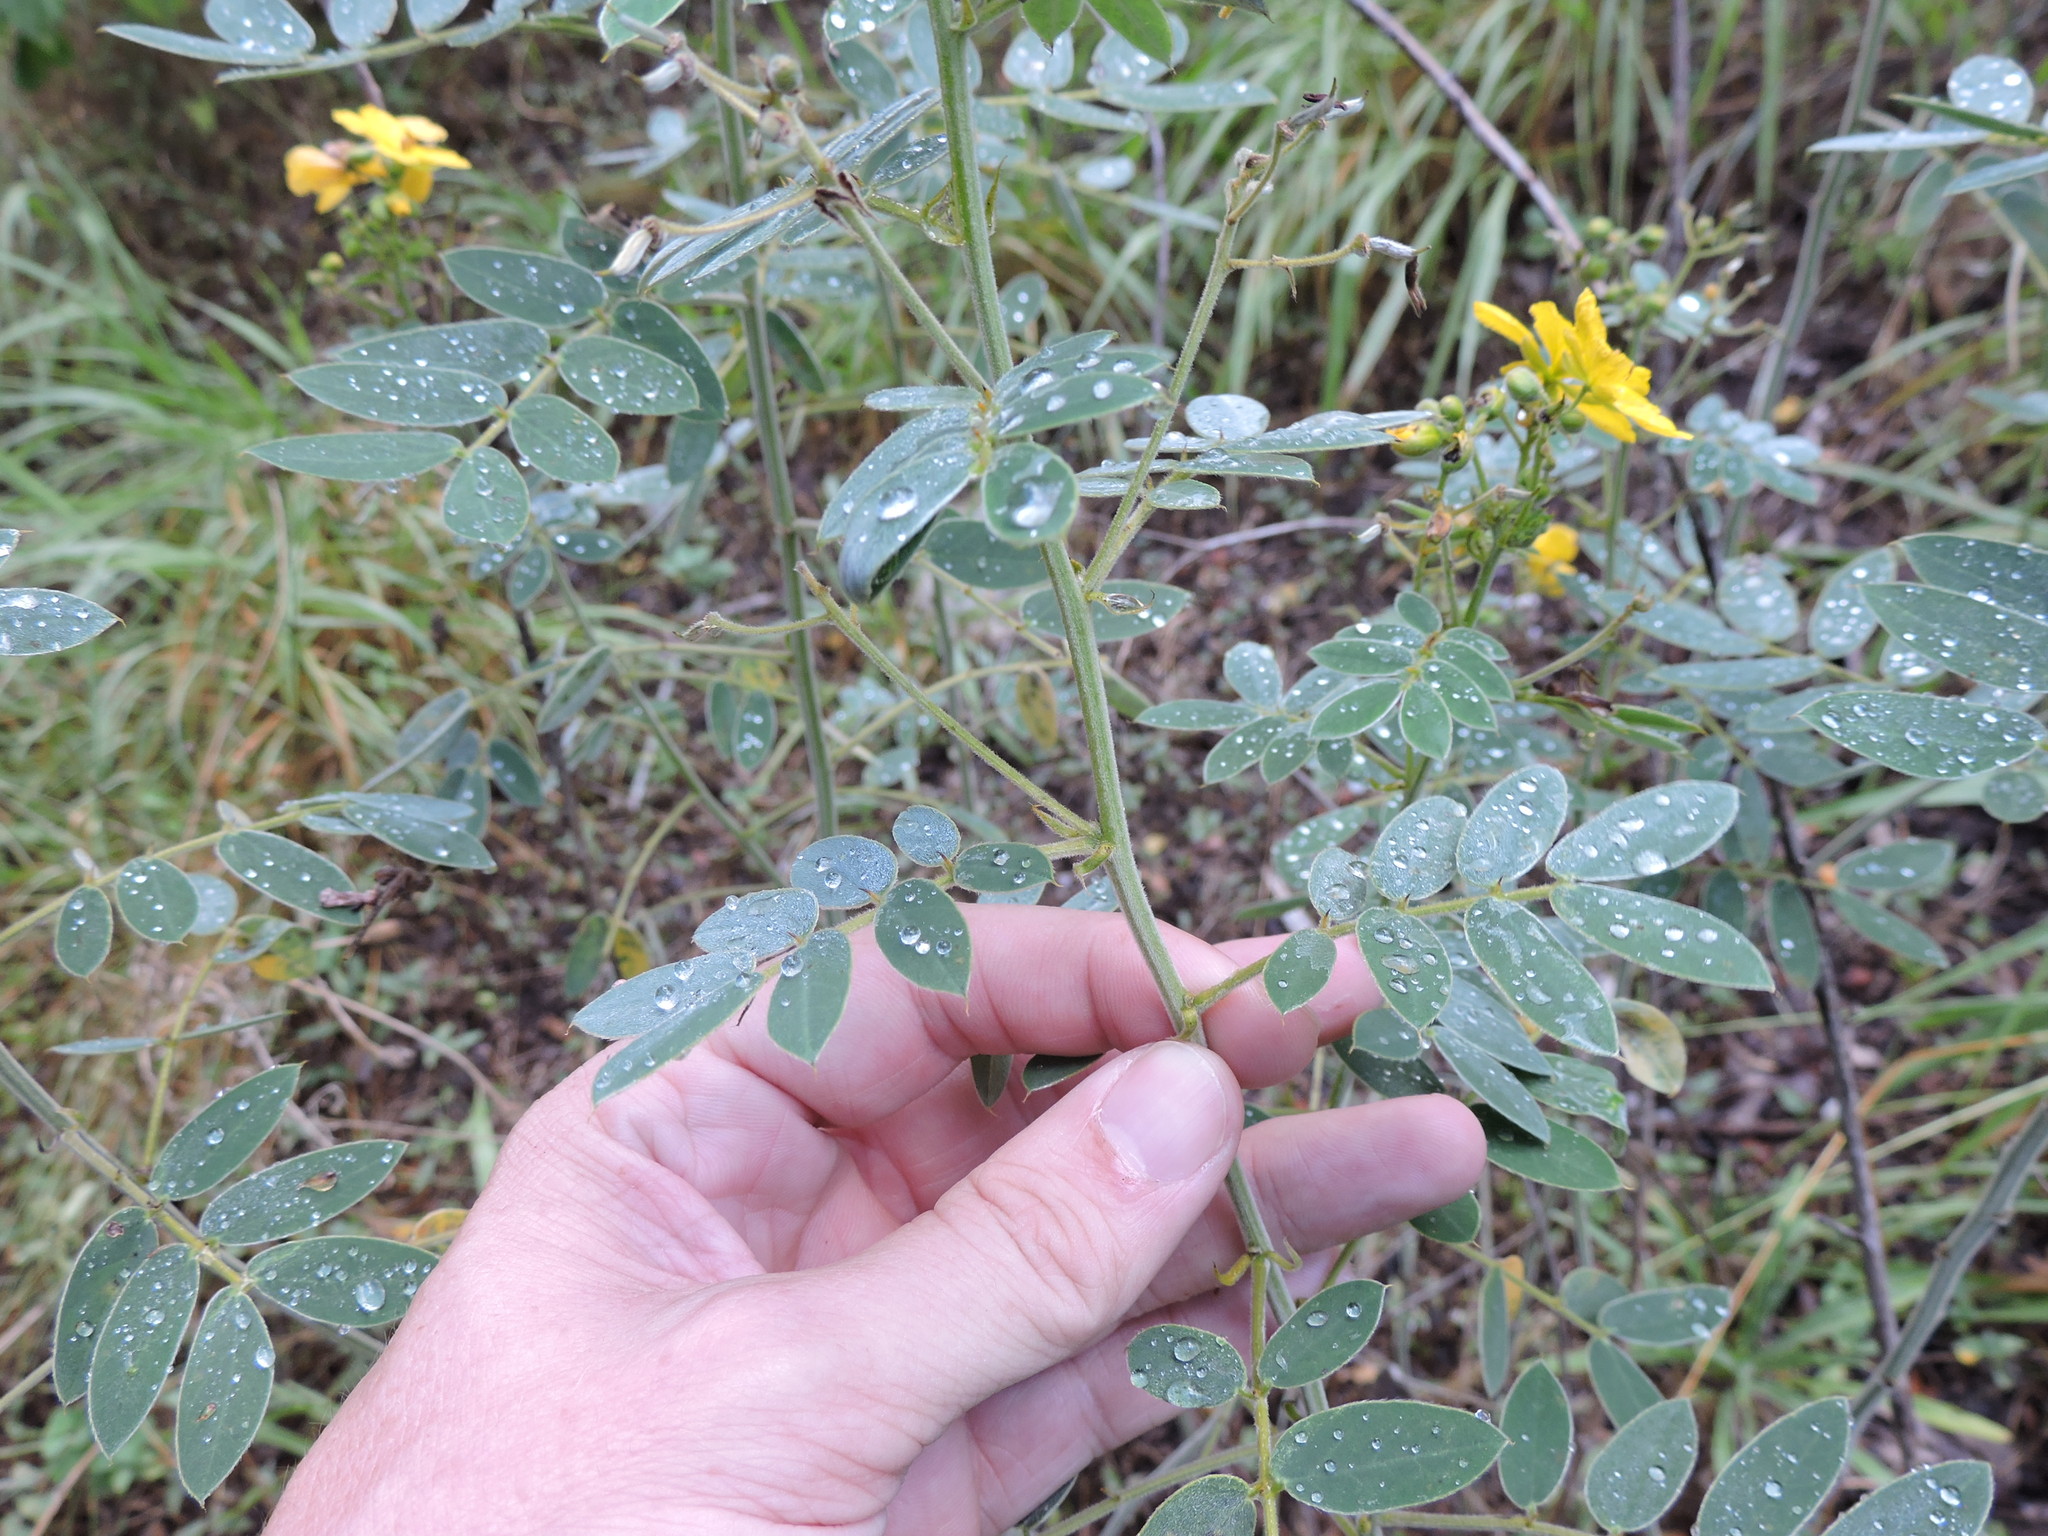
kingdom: Plantae
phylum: Tracheophyta
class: Magnoliopsida
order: Fabales
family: Fabaceae
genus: Senna
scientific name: Senna lindheimeriana
